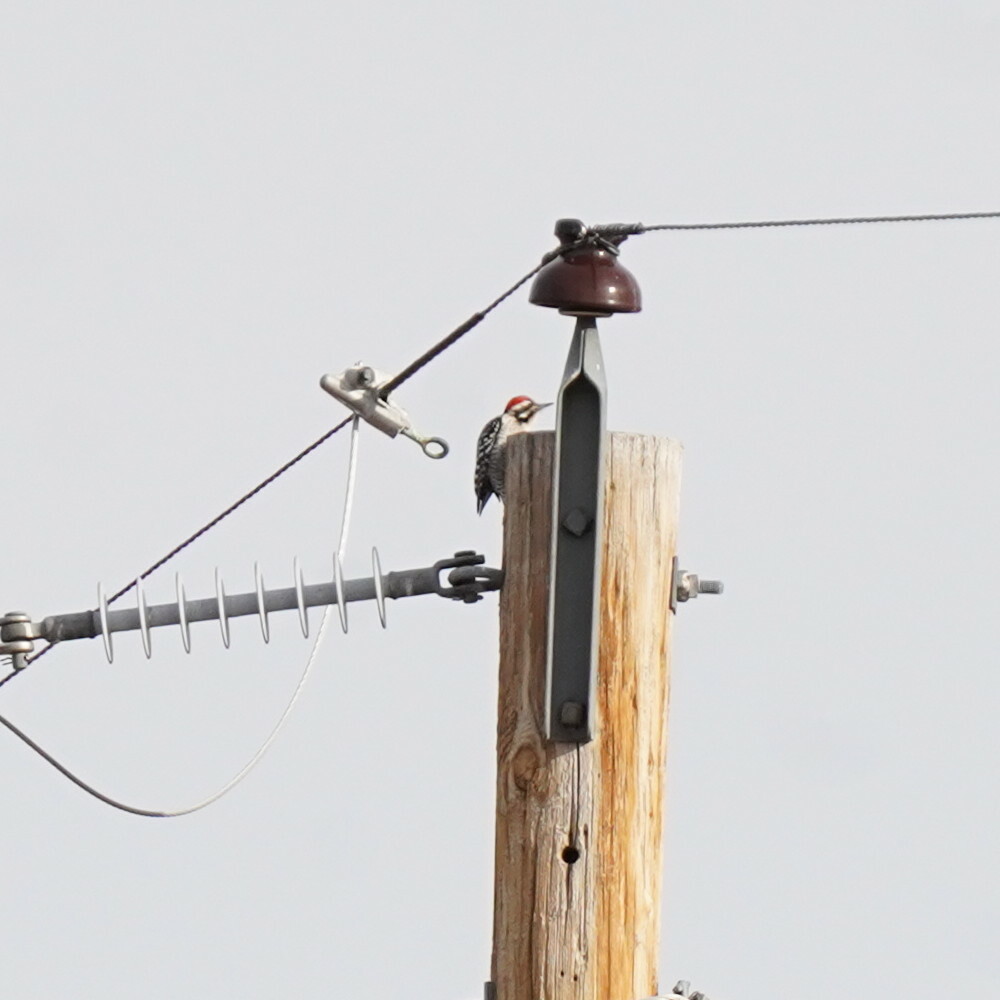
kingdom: Animalia
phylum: Chordata
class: Aves
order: Piciformes
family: Picidae
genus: Dryobates
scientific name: Dryobates scalaris
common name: Ladder-backed woodpecker
